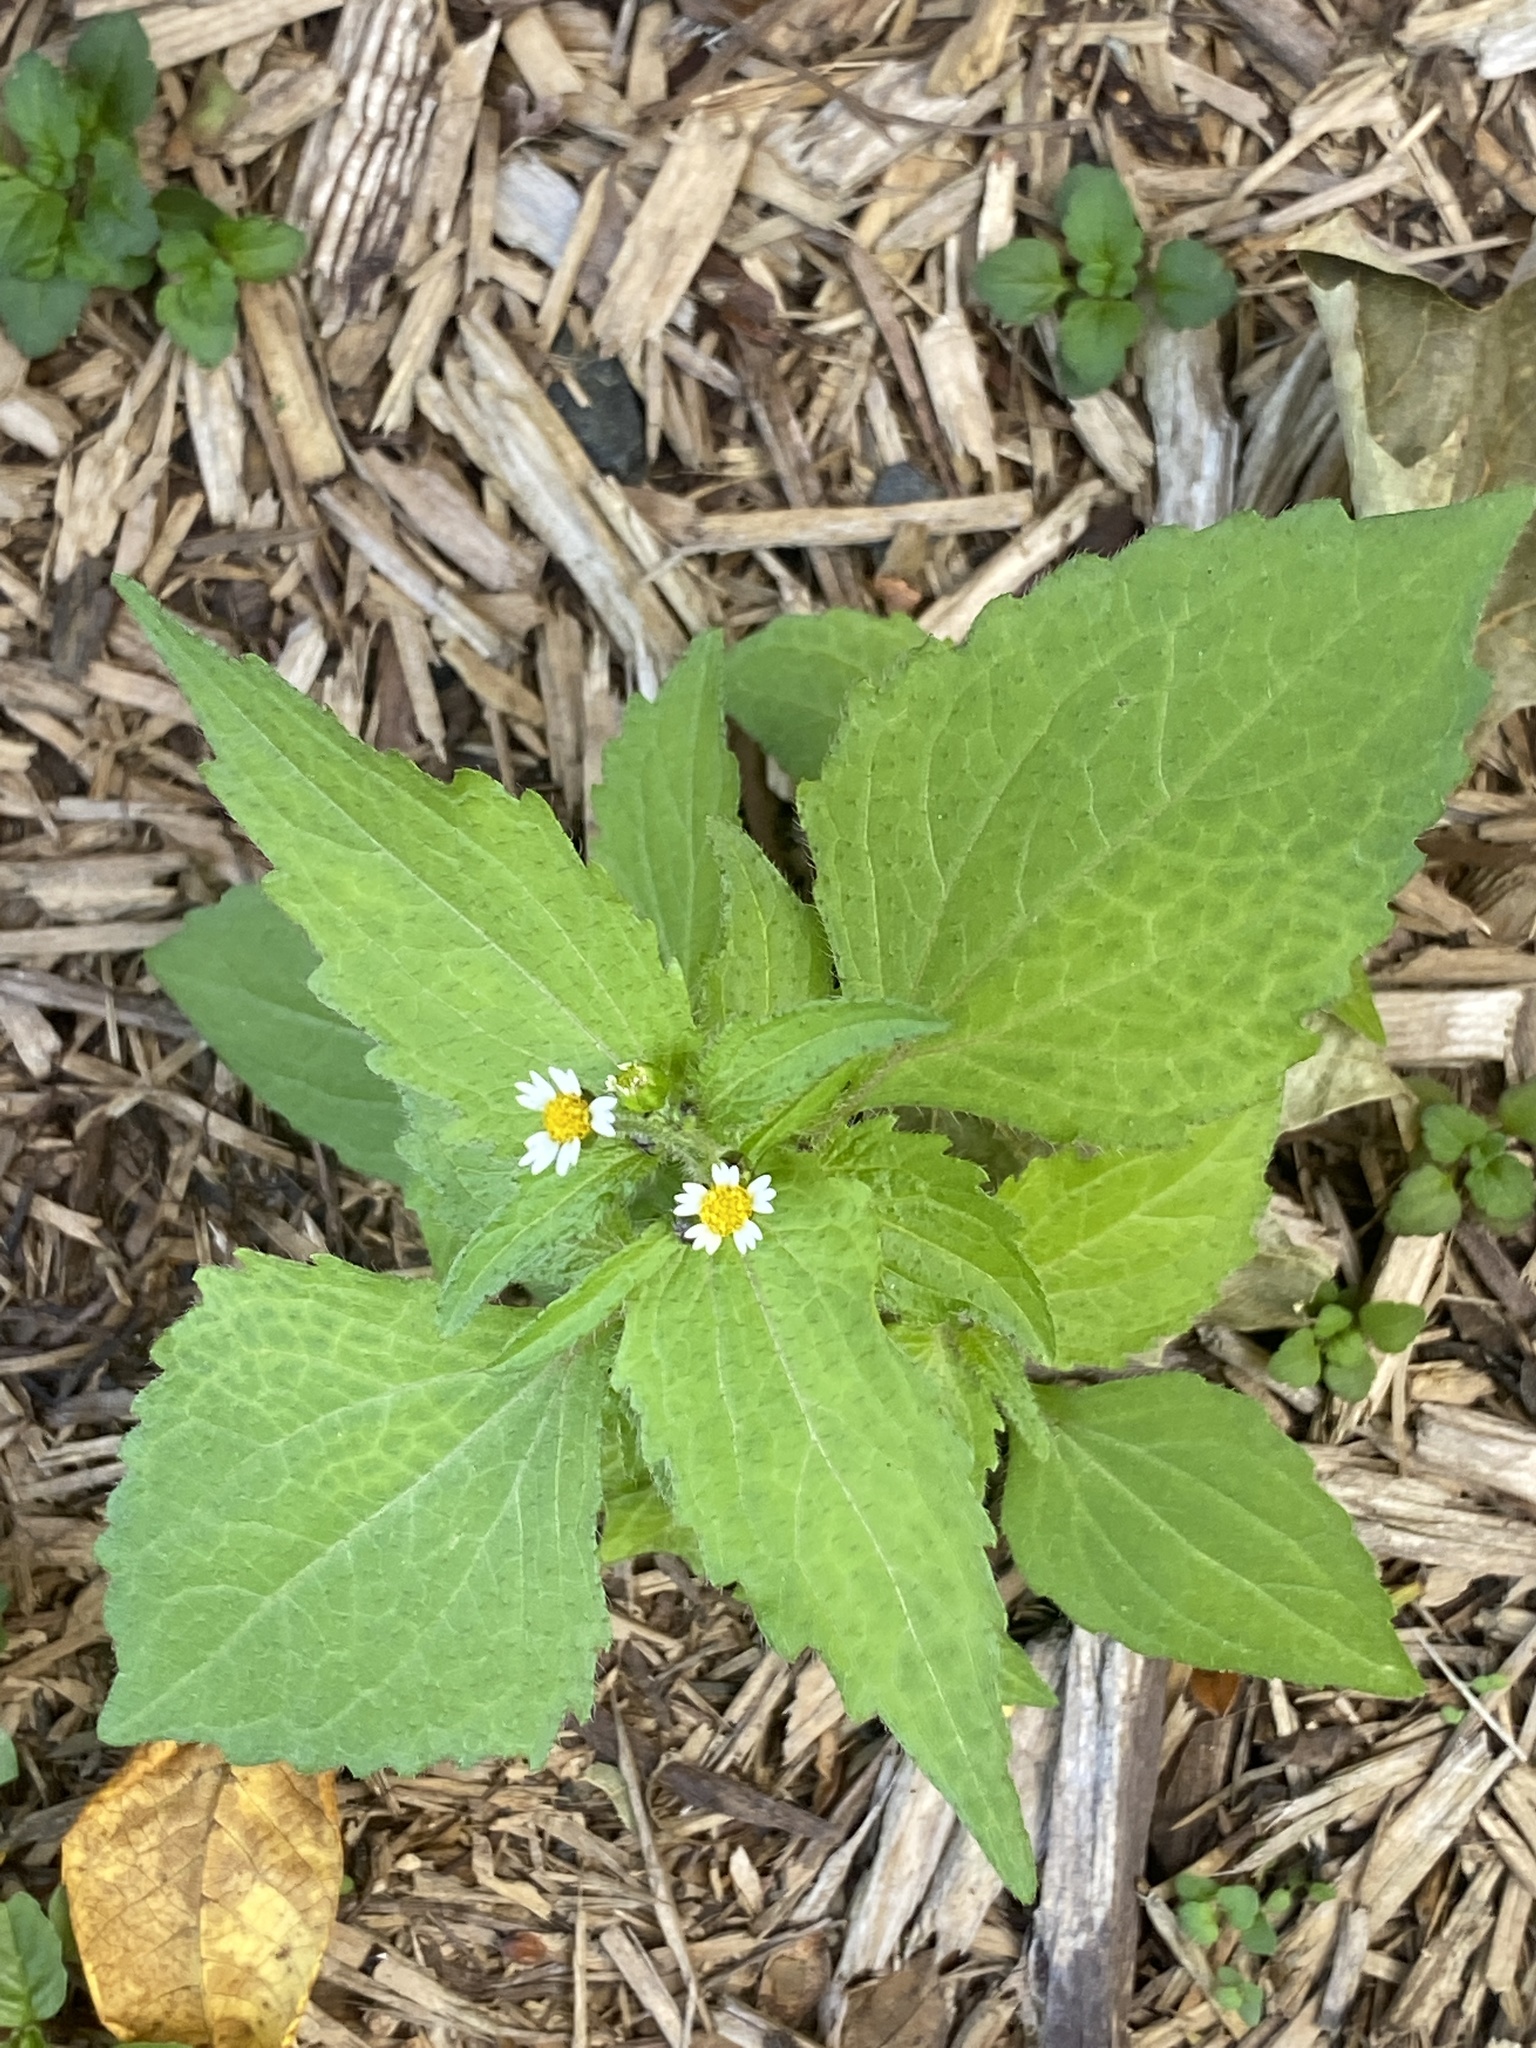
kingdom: Plantae
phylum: Tracheophyta
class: Magnoliopsida
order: Asterales
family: Asteraceae
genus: Galinsoga
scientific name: Galinsoga quadriradiata
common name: Shaggy soldier
